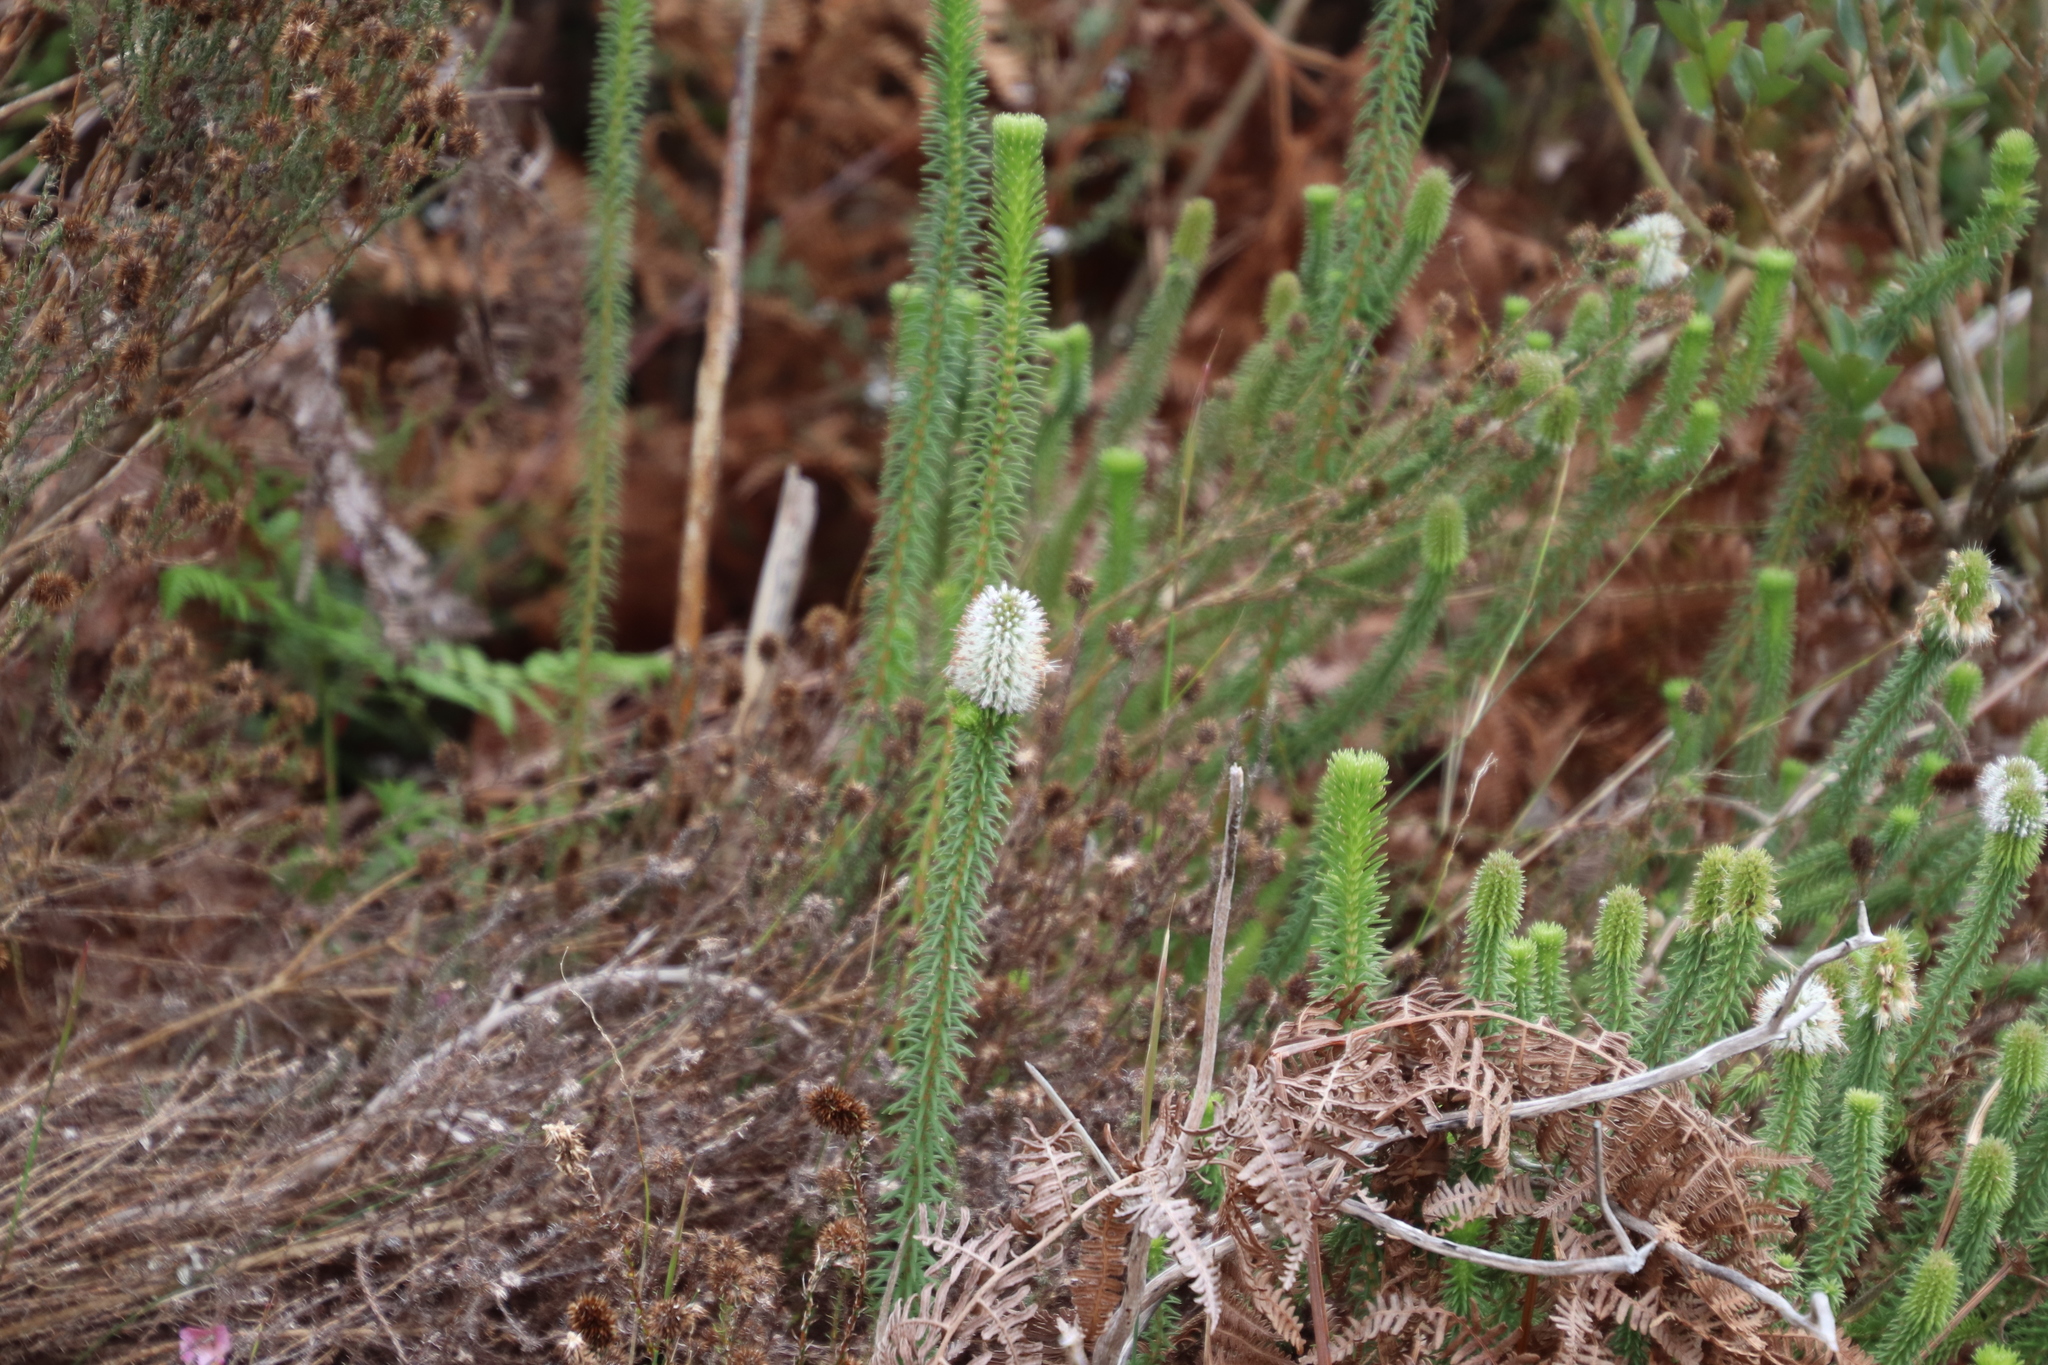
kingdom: Plantae
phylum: Tracheophyta
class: Magnoliopsida
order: Lamiales
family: Stilbaceae
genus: Stilbe
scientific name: Stilbe vestita
